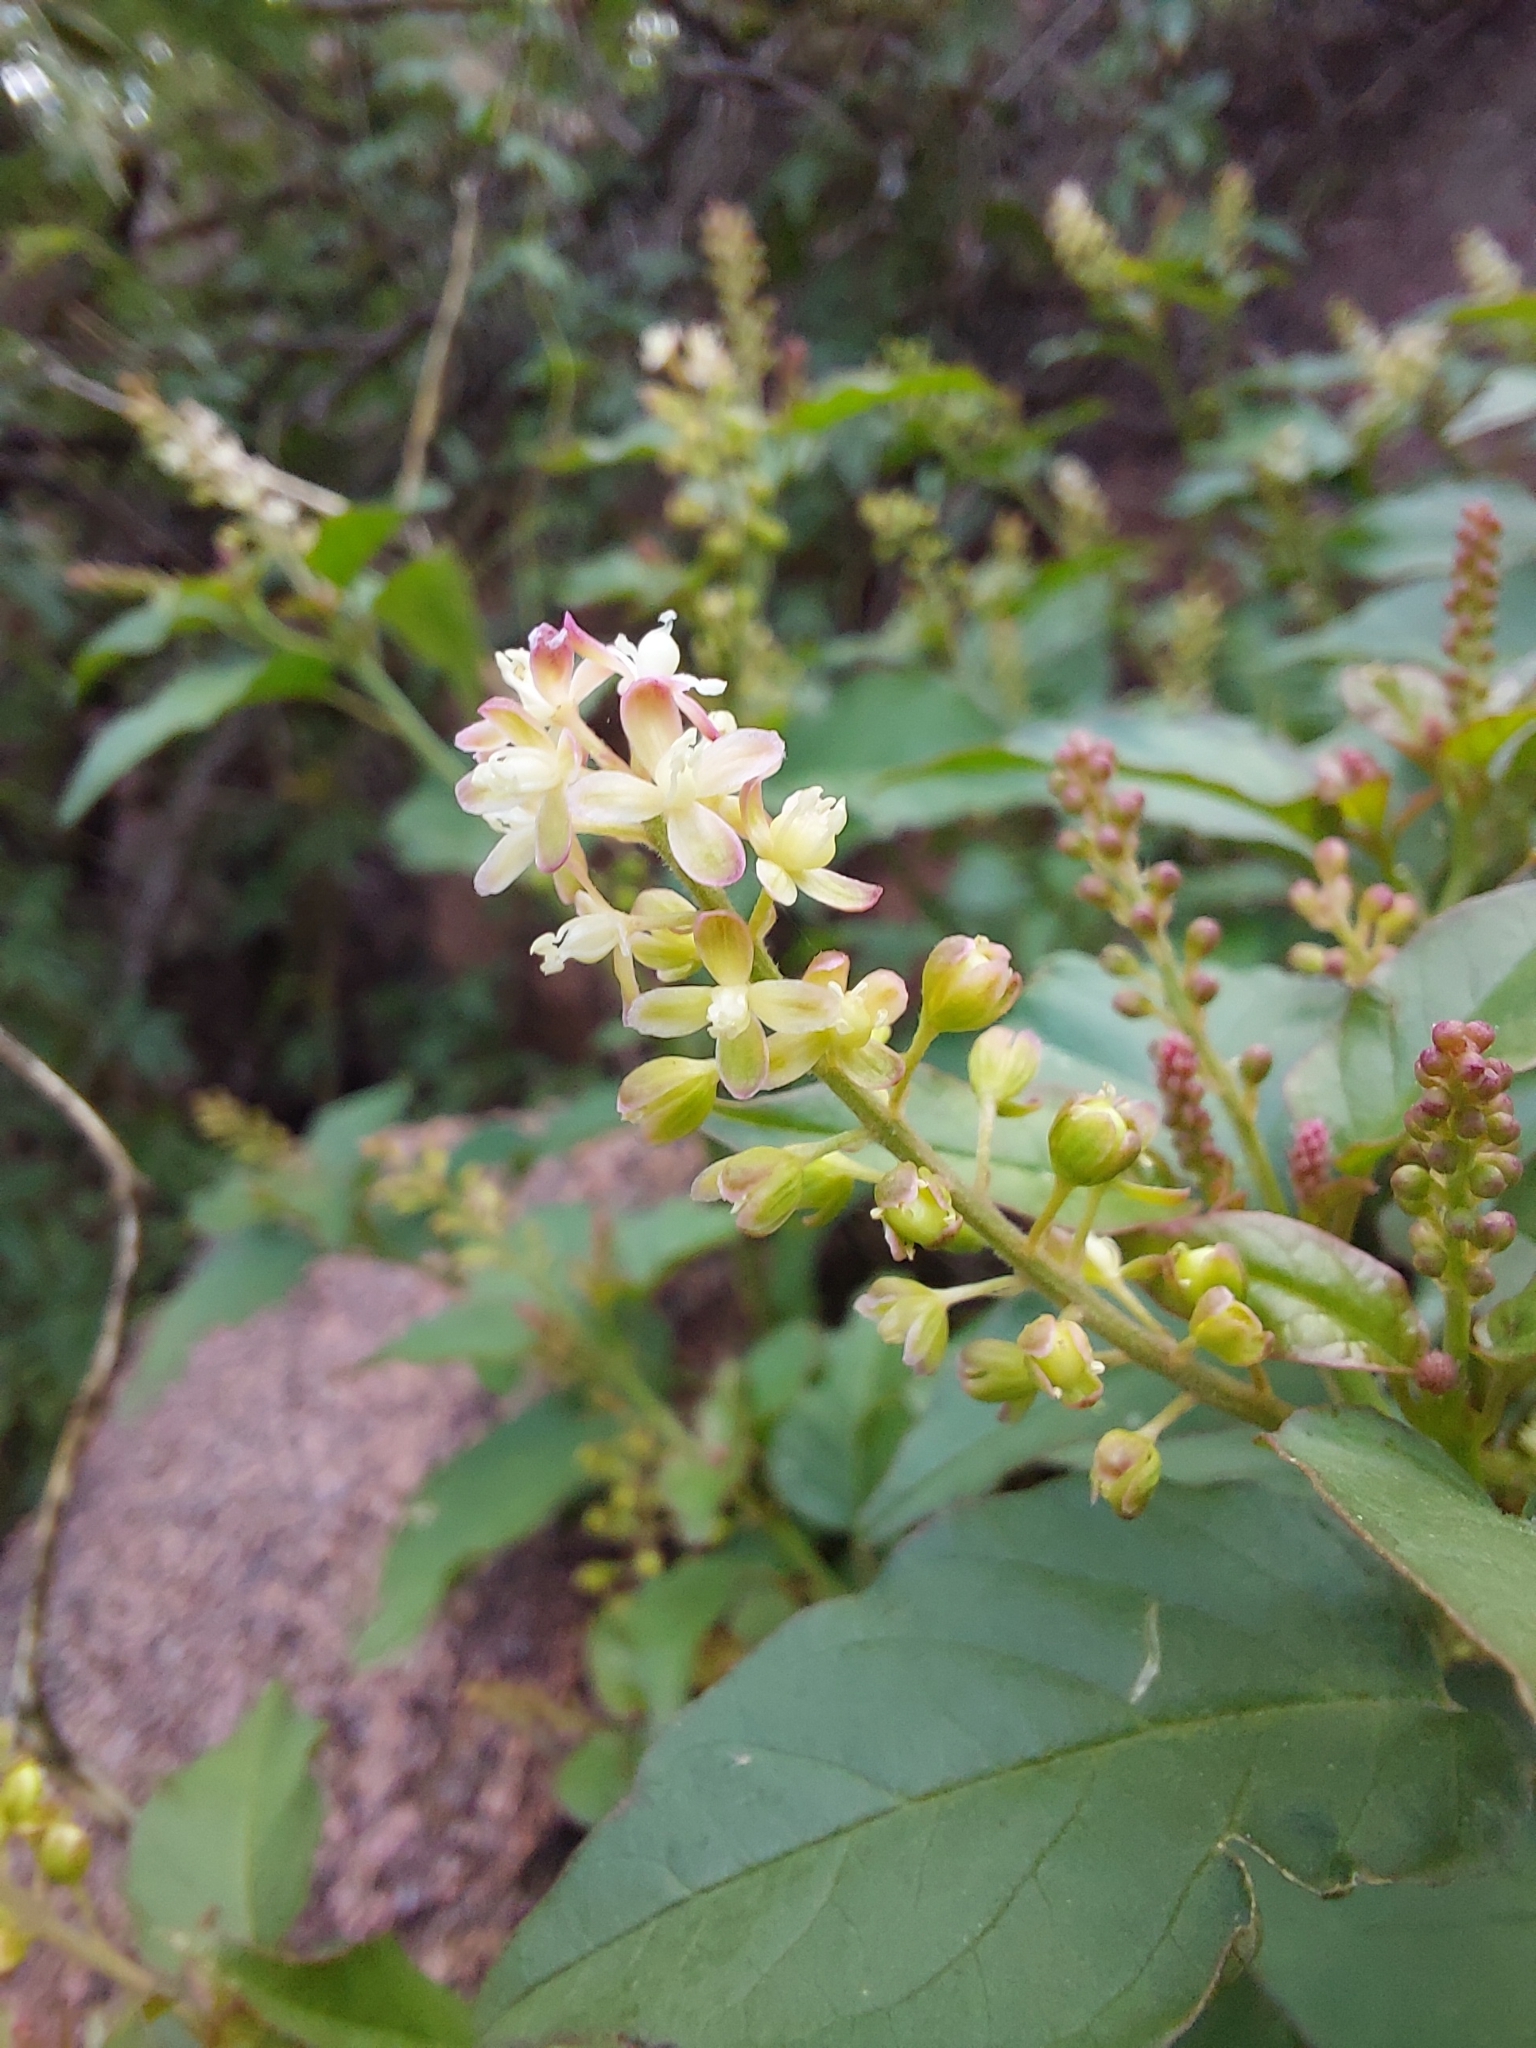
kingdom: Plantae
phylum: Tracheophyta
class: Magnoliopsida
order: Caryophyllales
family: Phytolaccaceae
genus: Rivina
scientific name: Rivina humilis
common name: Rougeplant
